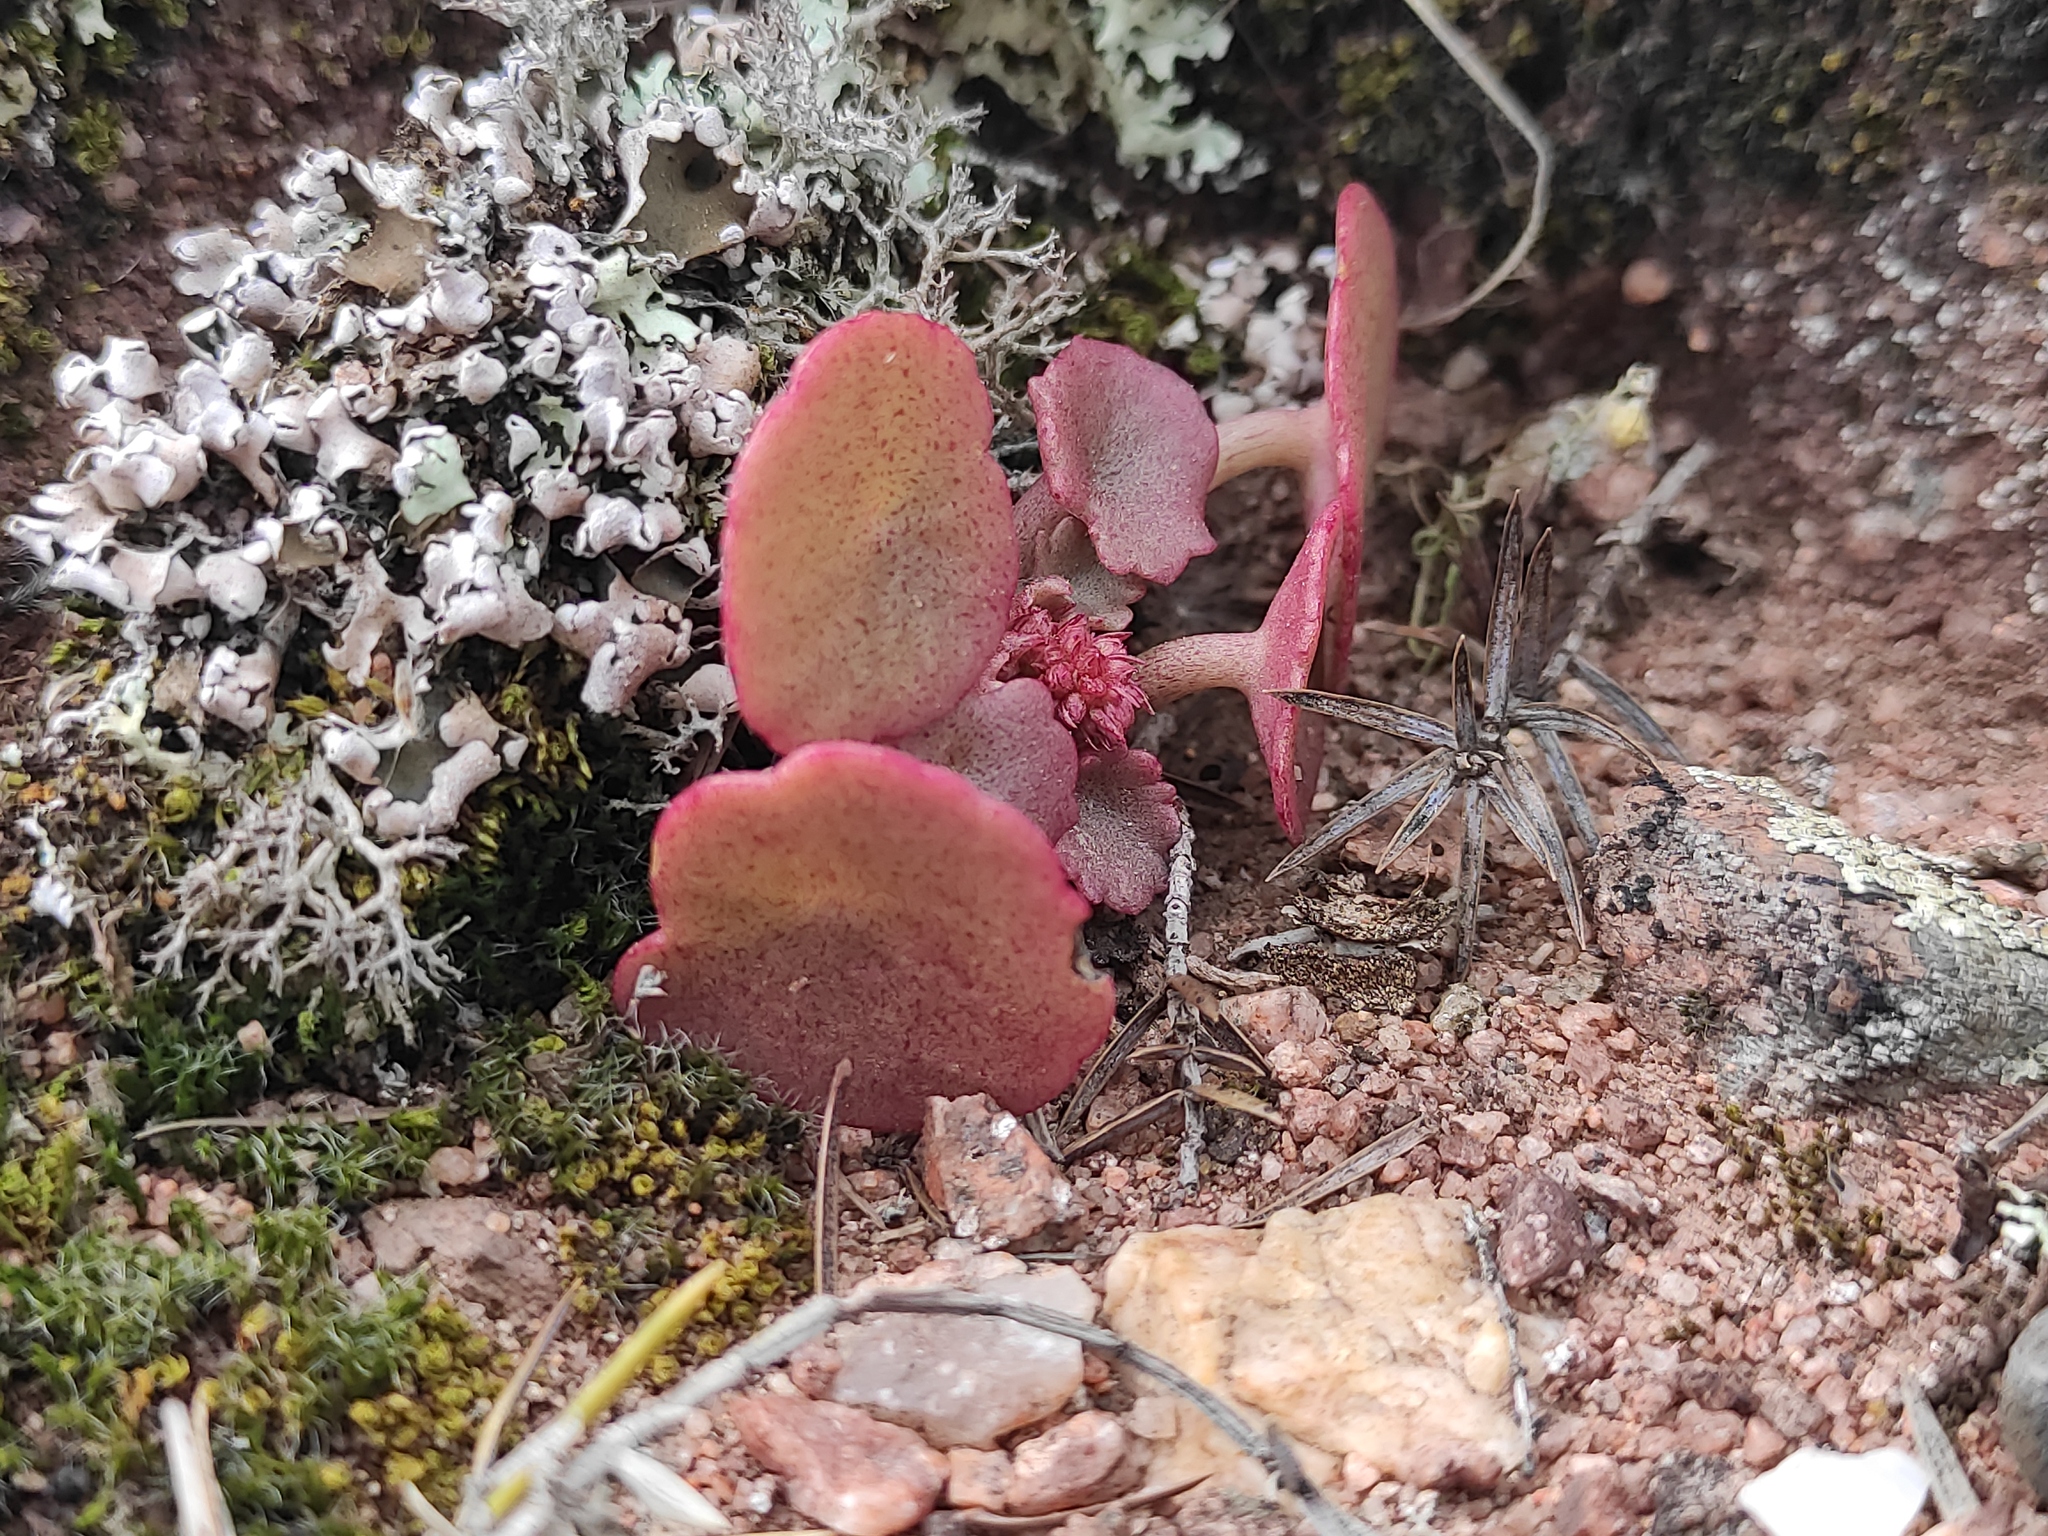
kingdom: Plantae
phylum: Tracheophyta
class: Magnoliopsida
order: Saxifragales
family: Crassulaceae
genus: Umbilicus
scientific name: Umbilicus rupestris
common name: Navelwort
